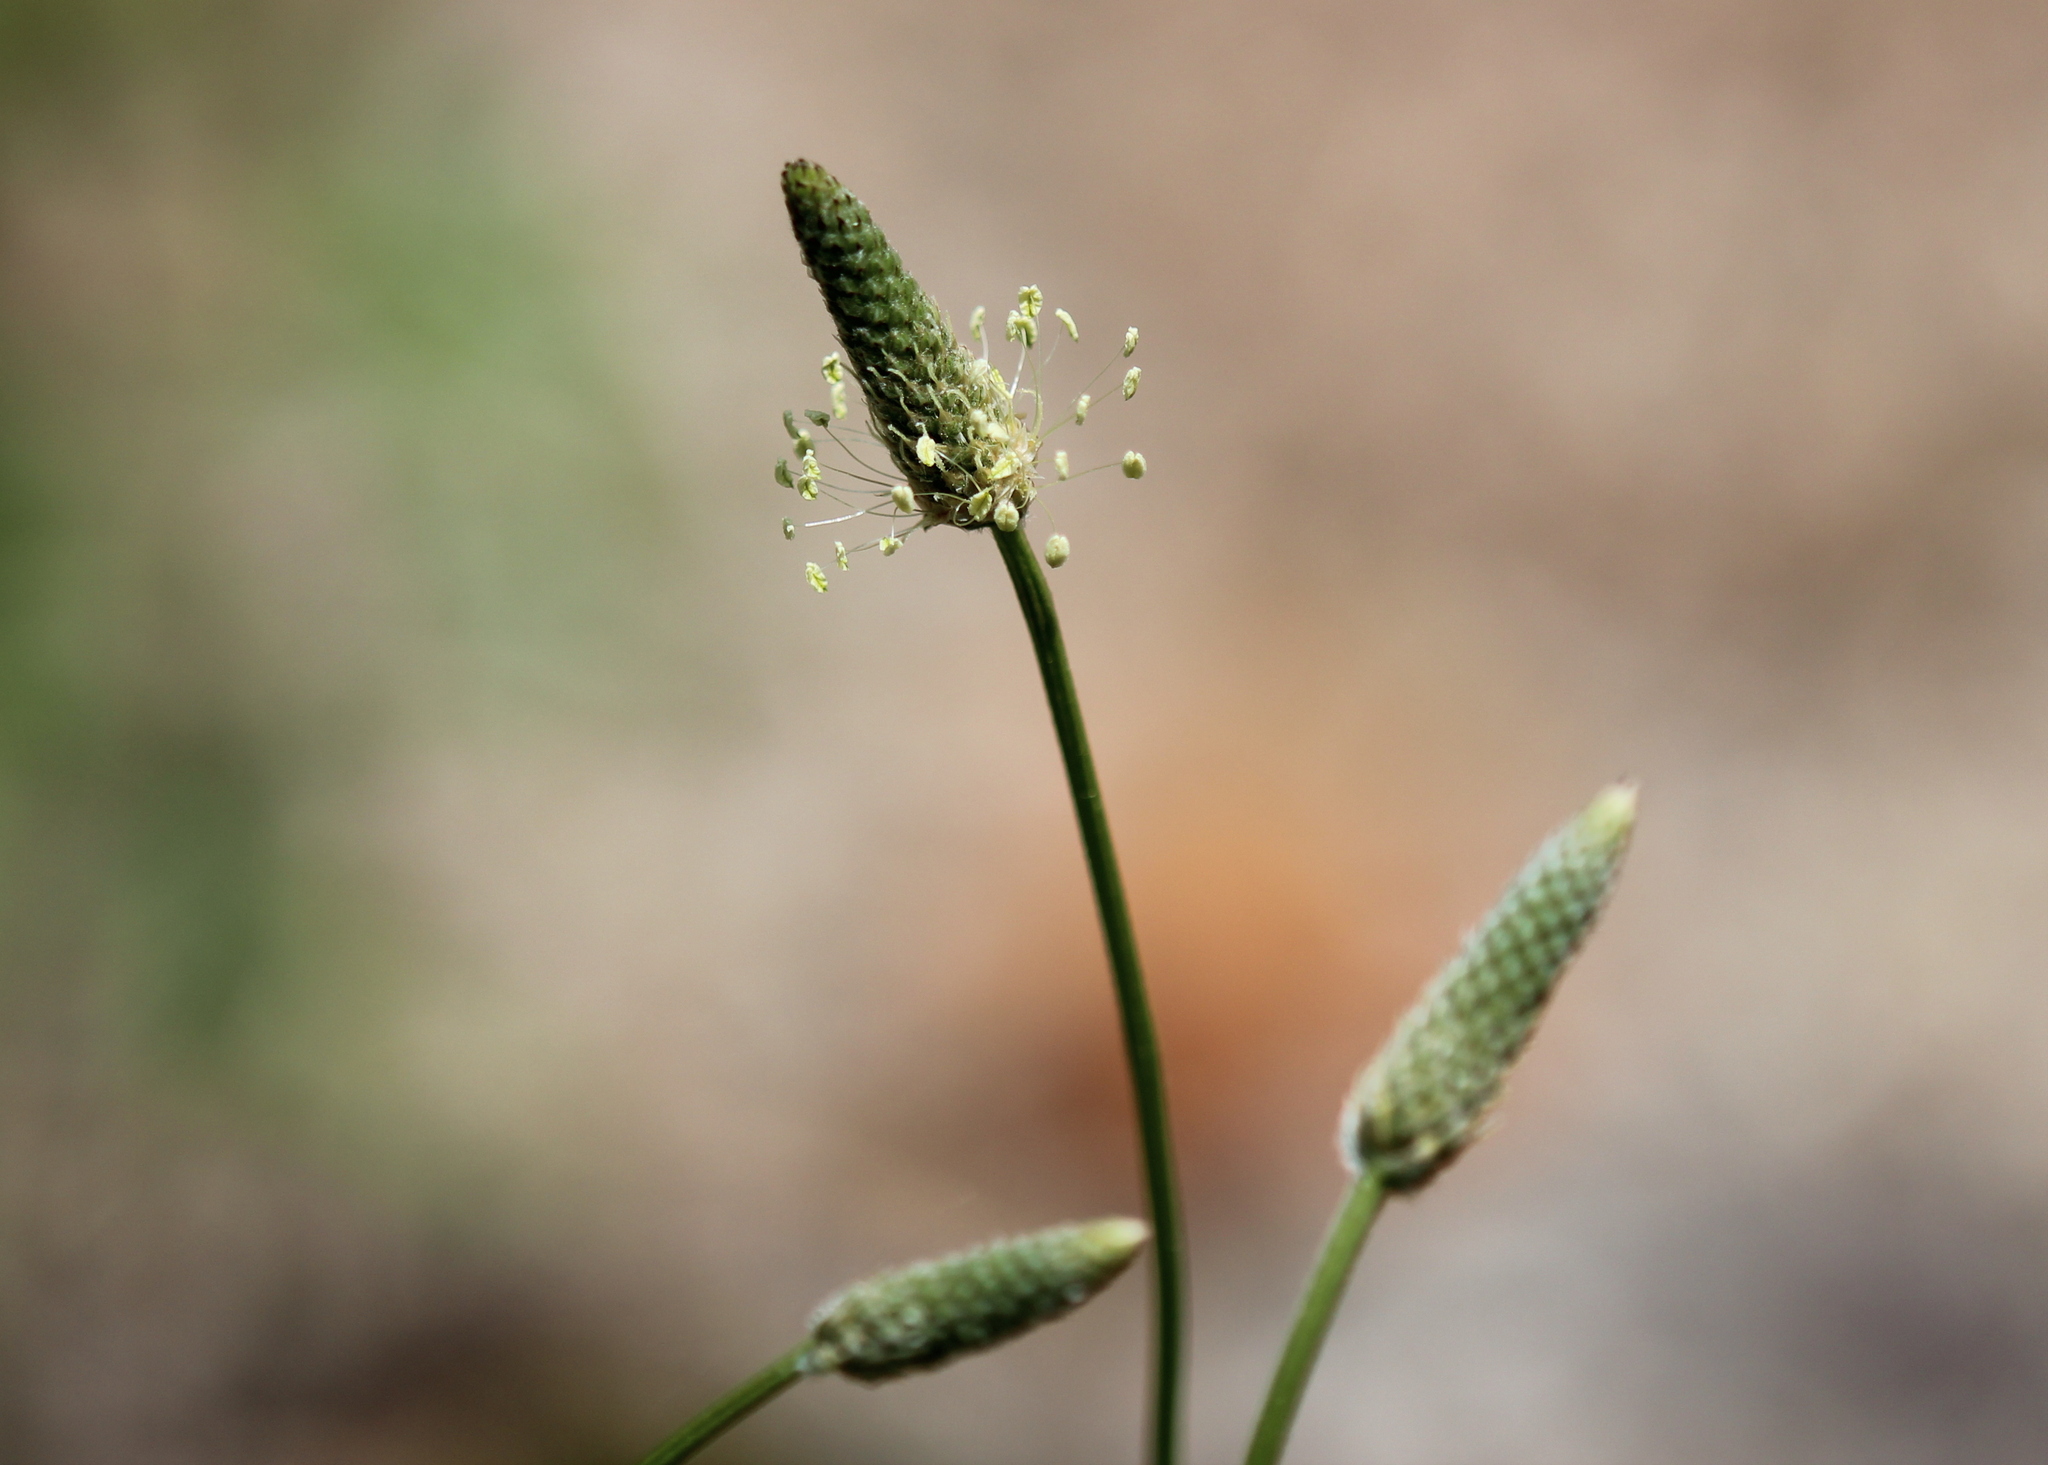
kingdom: Plantae
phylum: Tracheophyta
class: Magnoliopsida
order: Lamiales
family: Plantaginaceae
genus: Plantago
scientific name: Plantago lanceolata
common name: Ribwort plantain
